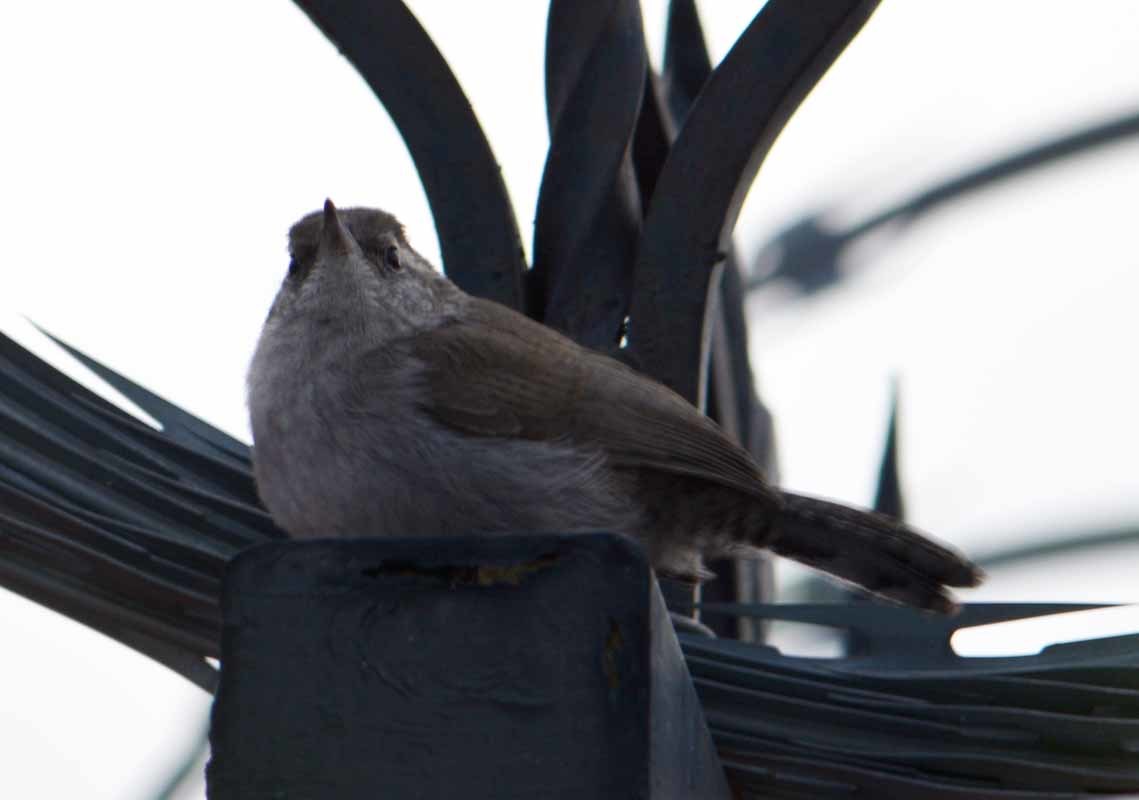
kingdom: Animalia
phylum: Chordata
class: Aves
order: Passeriformes
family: Troglodytidae
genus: Thryomanes
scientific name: Thryomanes bewickii
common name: Bewick's wren
